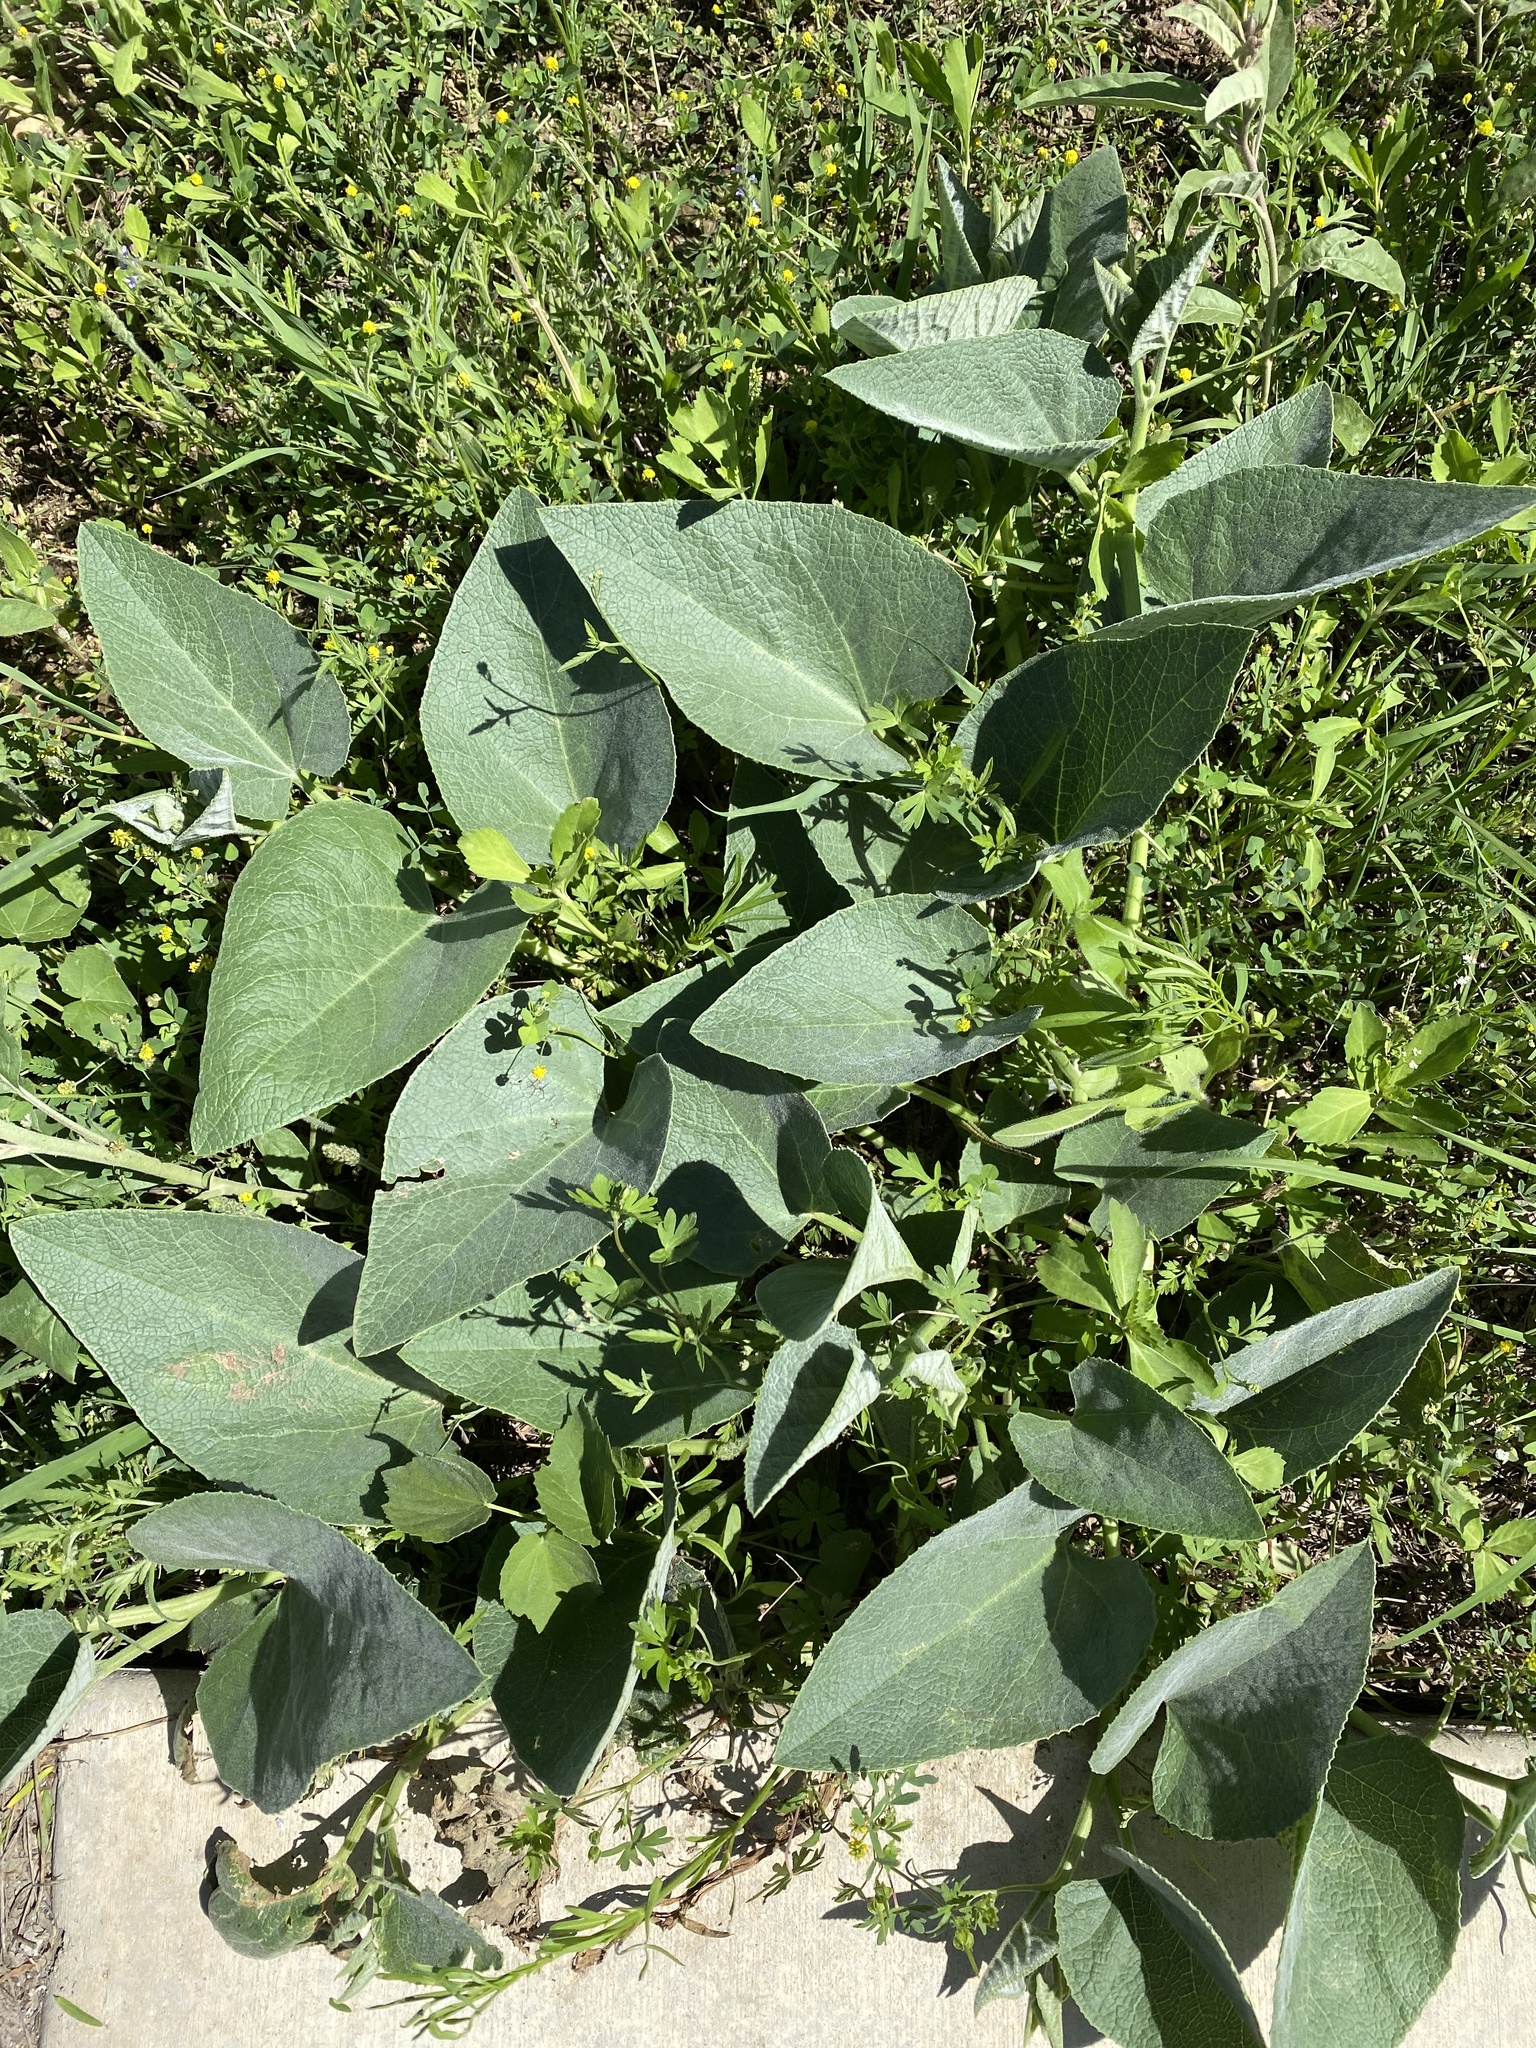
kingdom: Plantae
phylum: Tracheophyta
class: Magnoliopsida
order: Cucurbitales
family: Cucurbitaceae
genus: Cucurbita
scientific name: Cucurbita foetidissima
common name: Buffalo gourd
